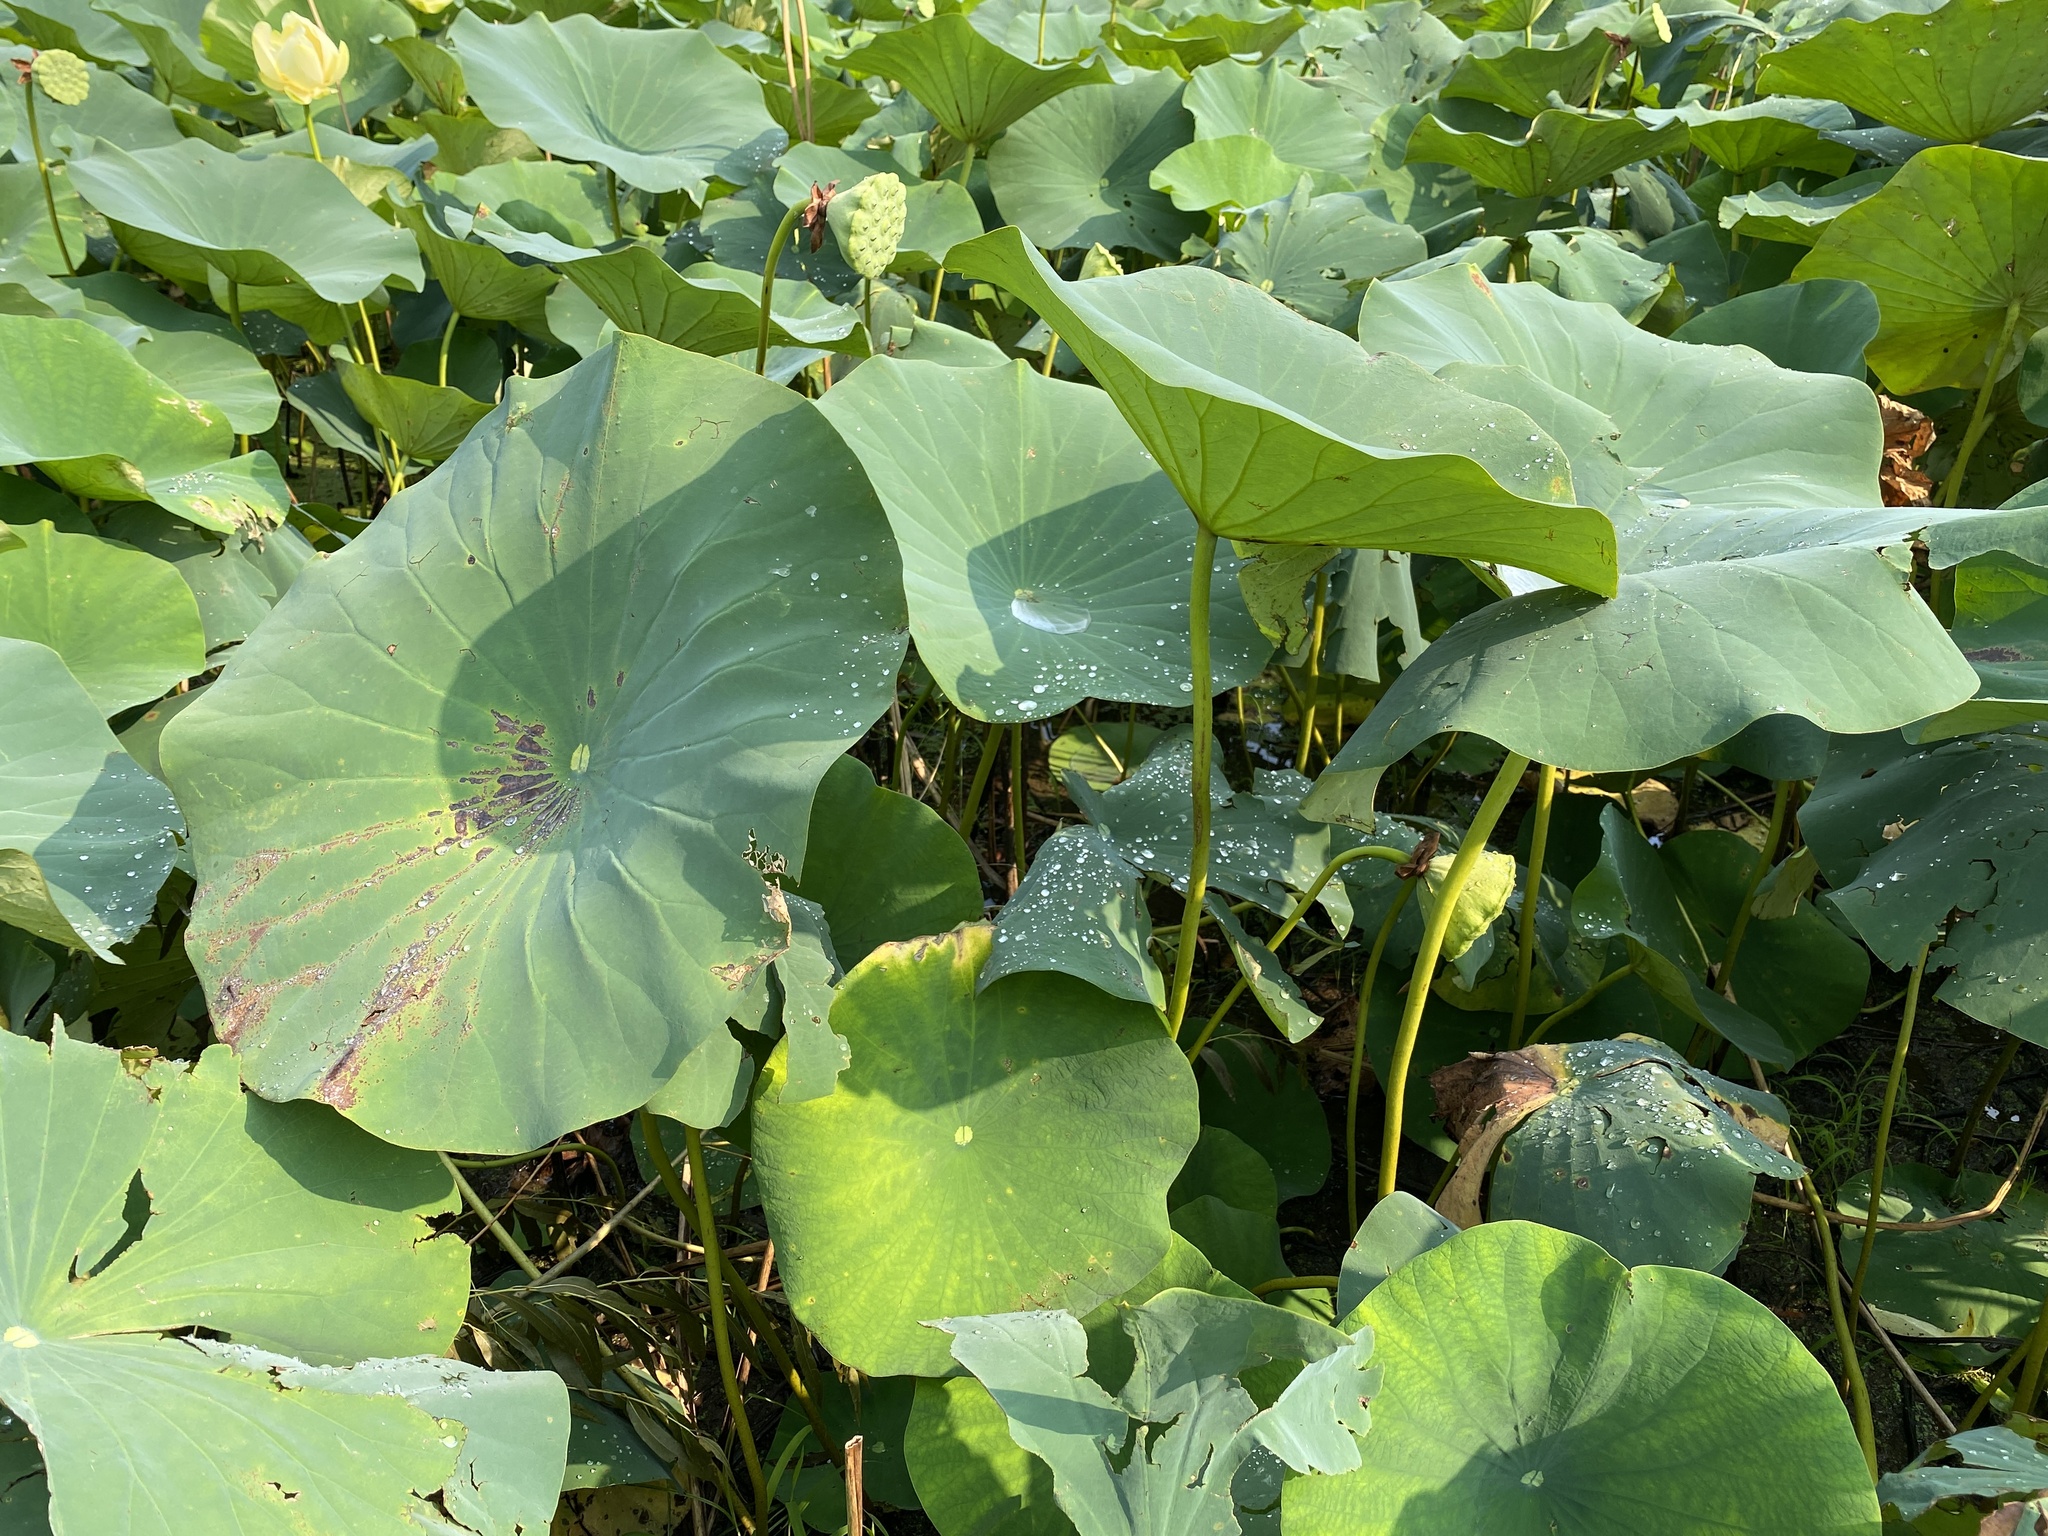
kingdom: Plantae
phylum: Tracheophyta
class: Magnoliopsida
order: Proteales
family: Nelumbonaceae
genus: Nelumbo
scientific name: Nelumbo lutea
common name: American lotus
